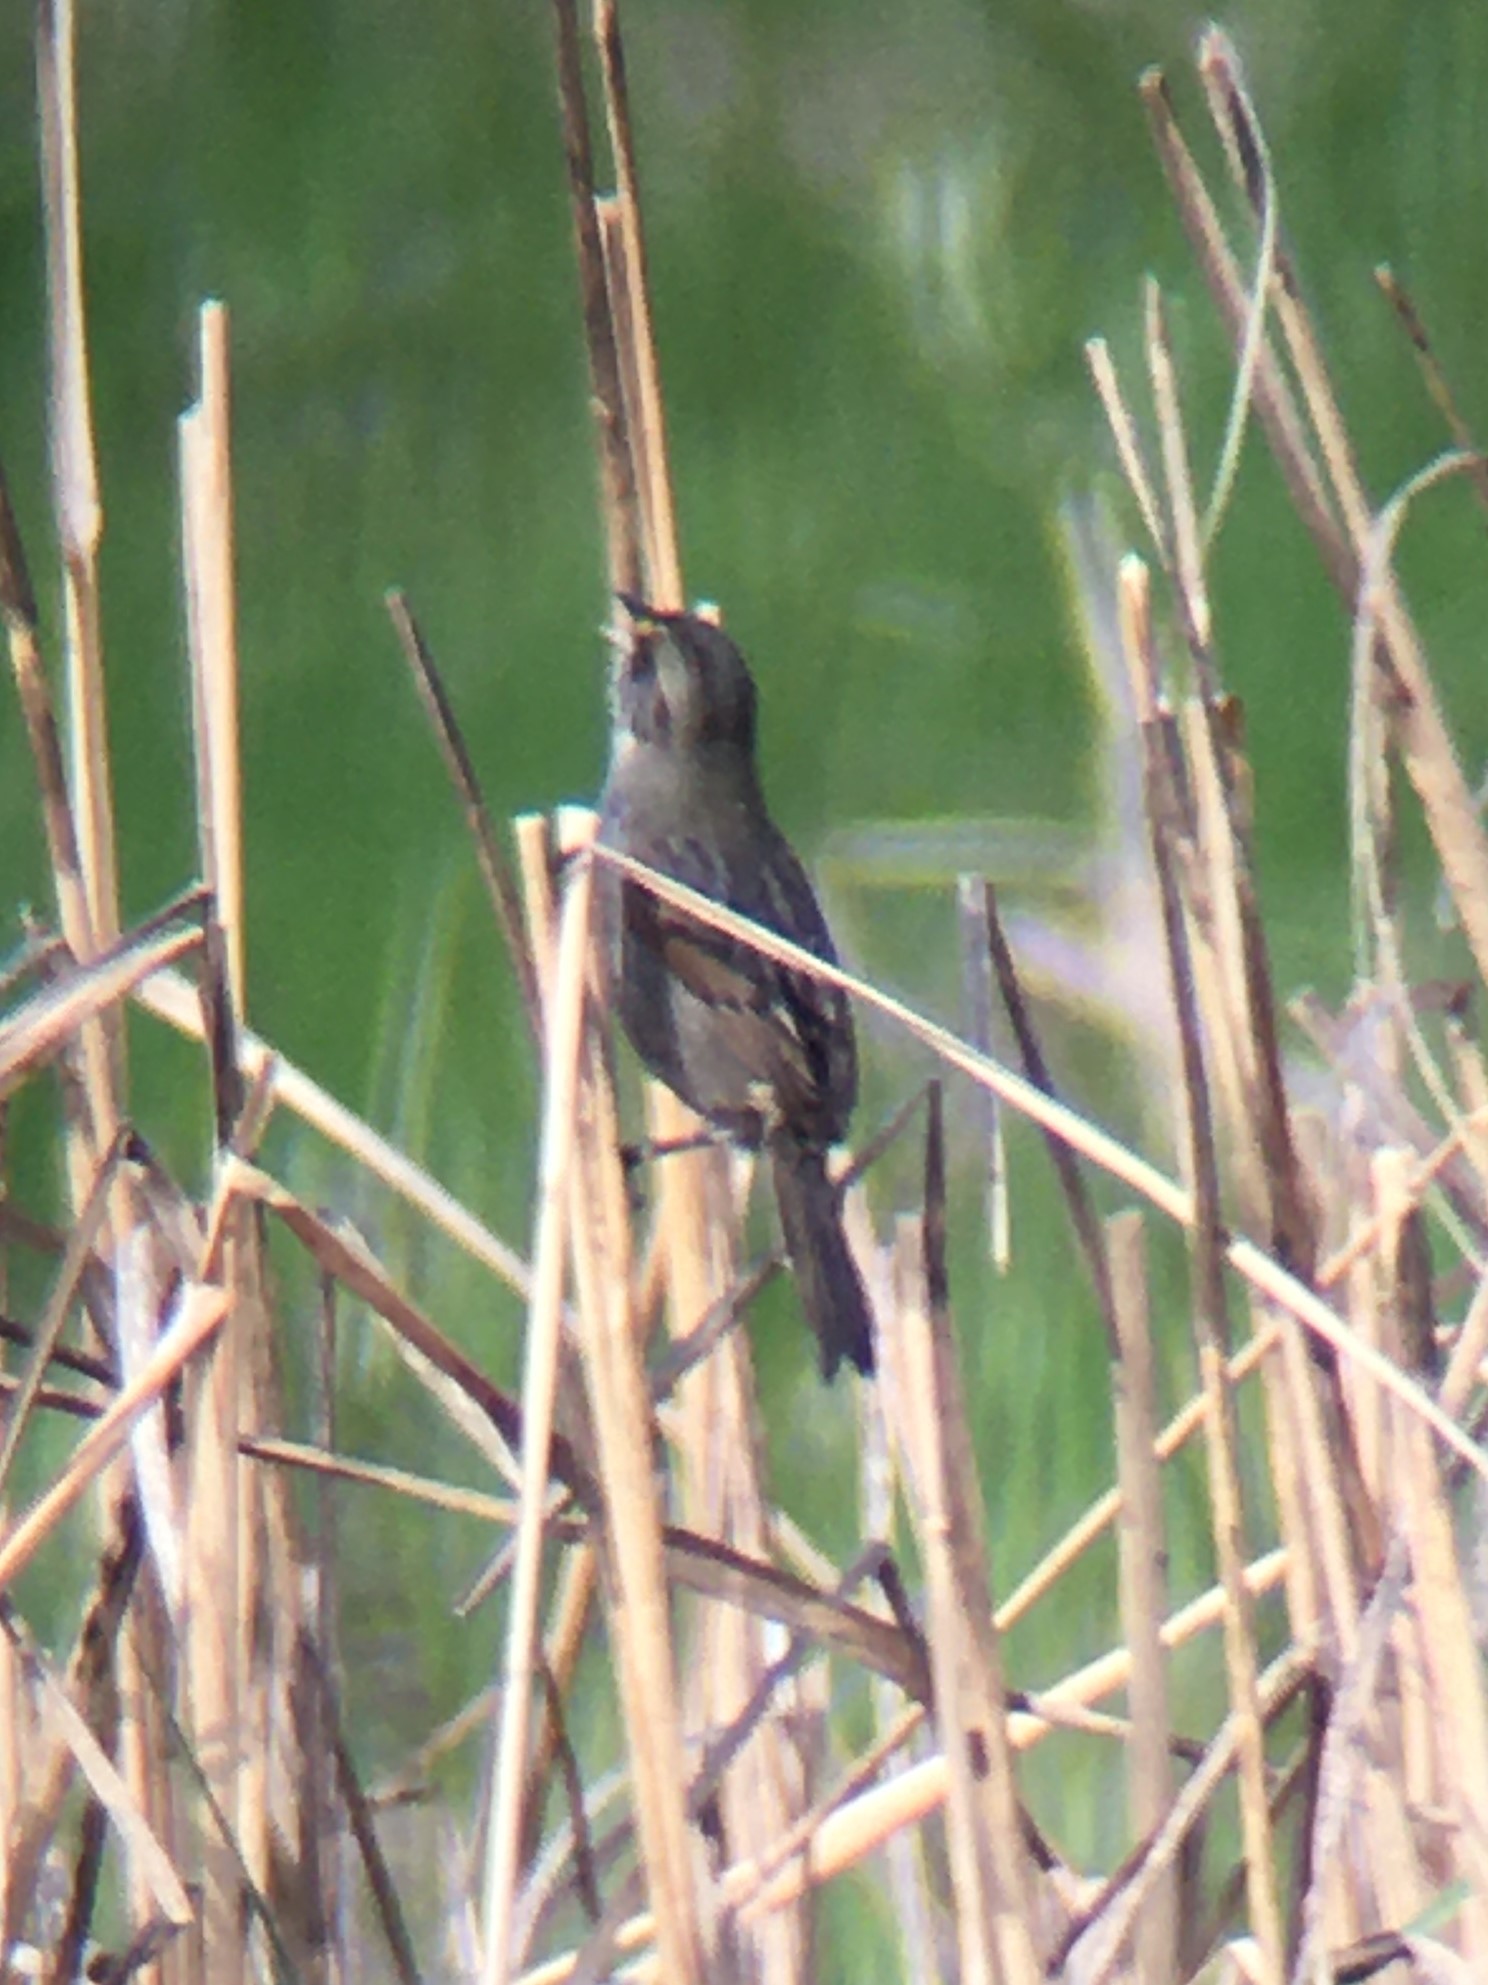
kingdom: Animalia
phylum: Chordata
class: Aves
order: Passeriformes
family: Passerellidae
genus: Ammospiza
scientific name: Ammospiza maritima
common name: Seaside sparrow
